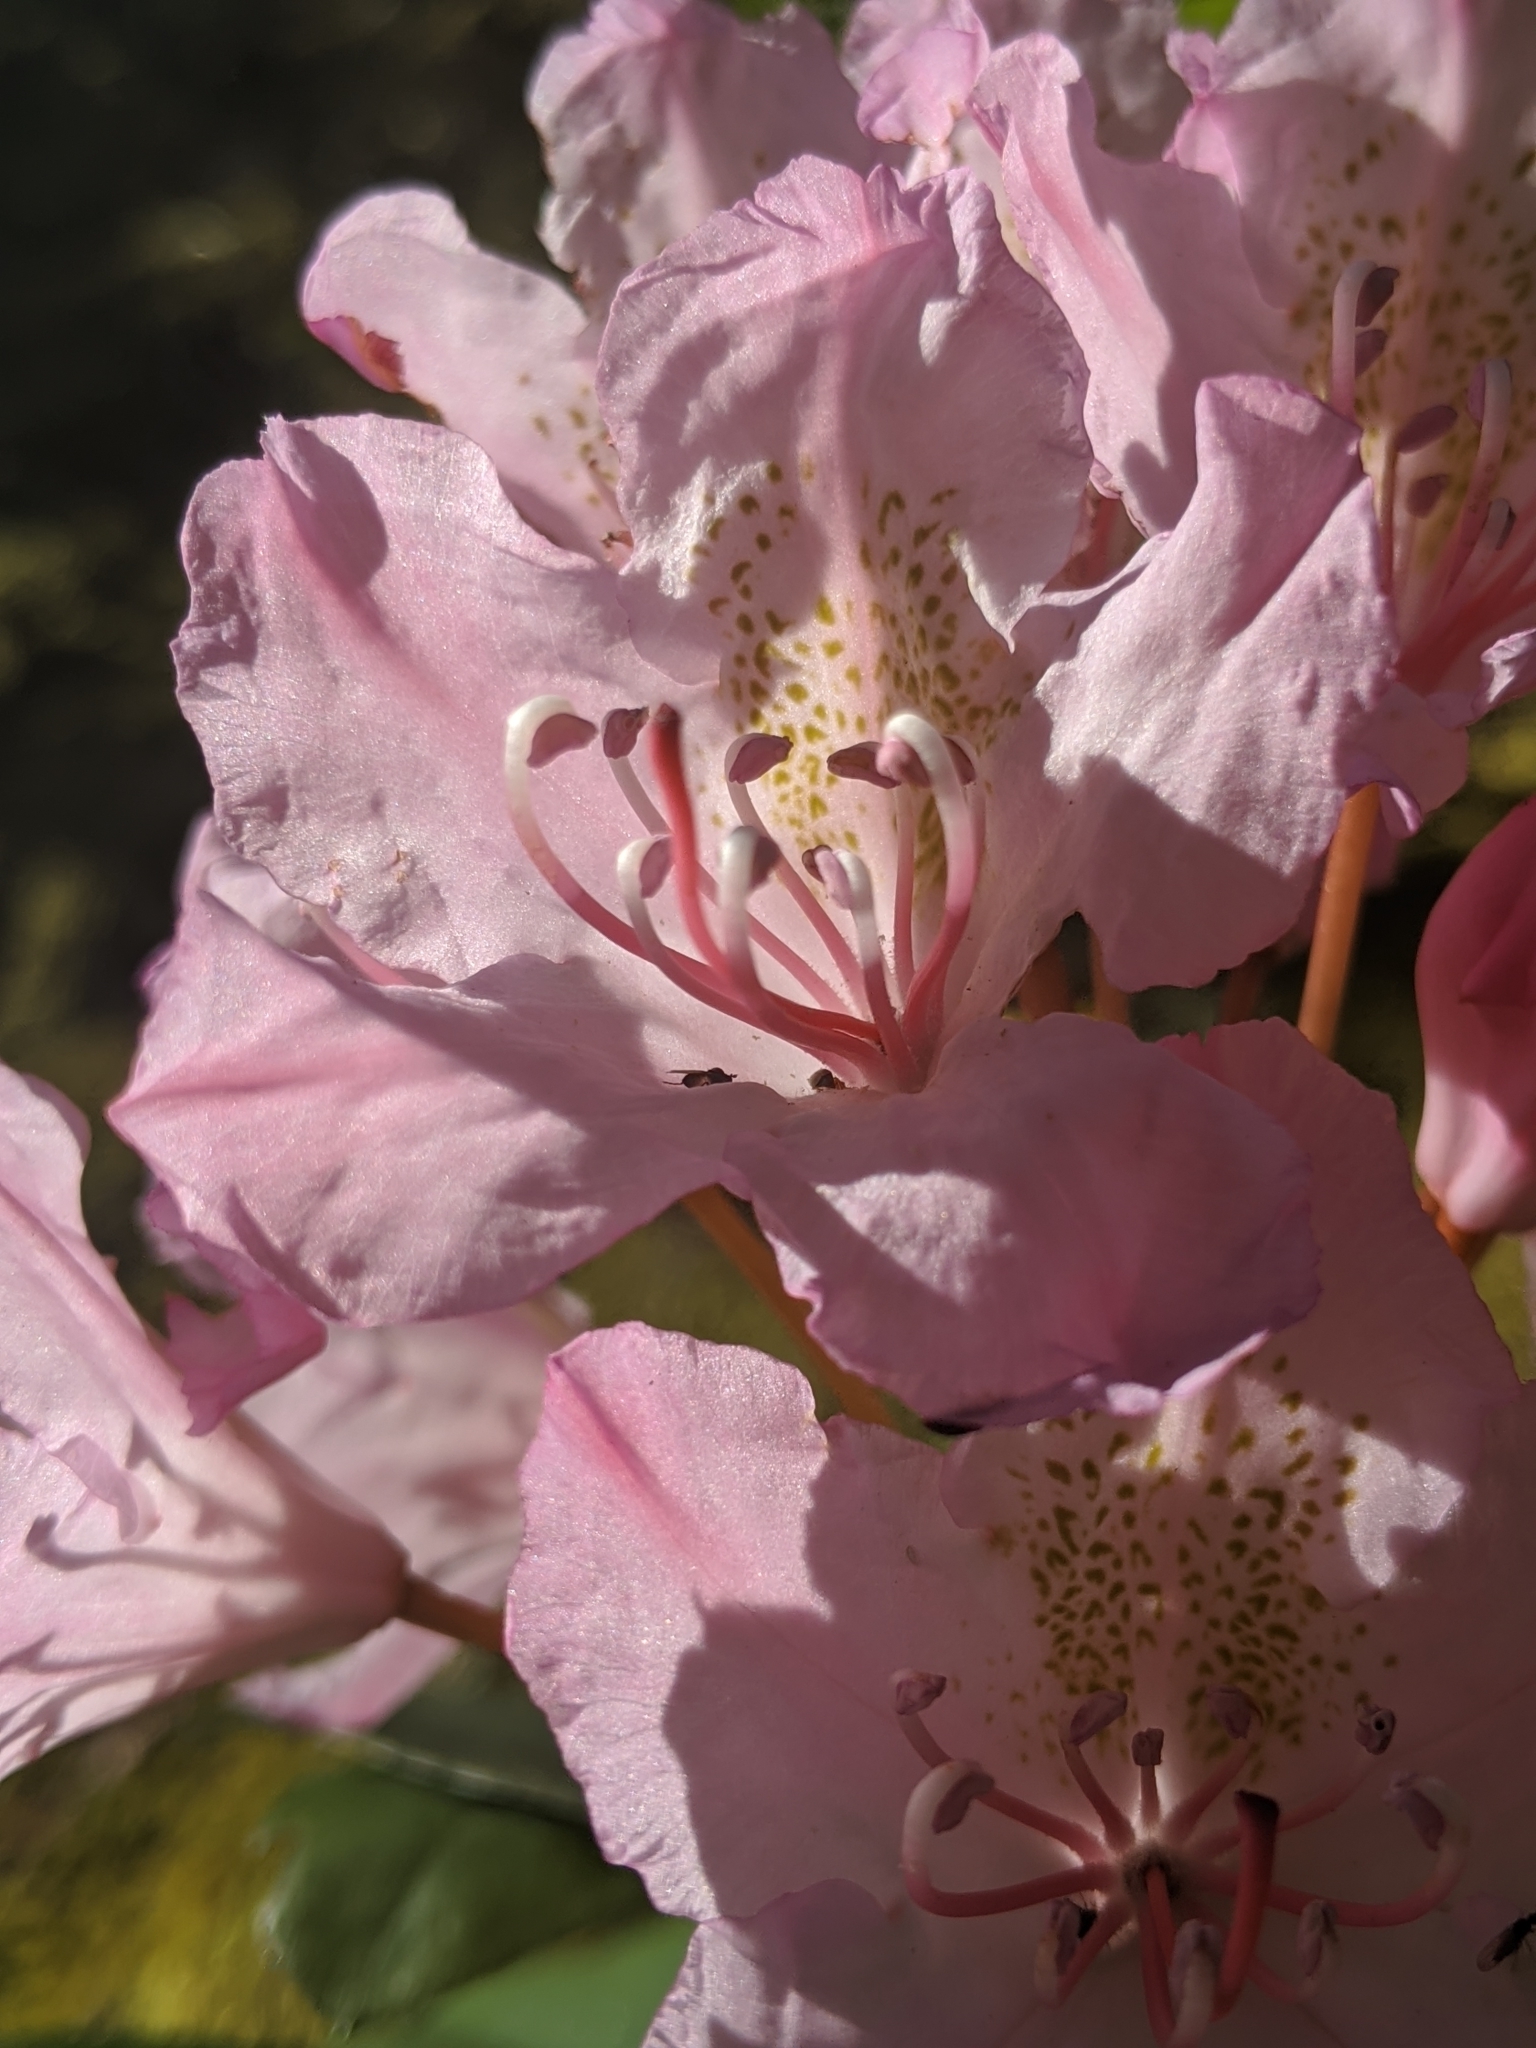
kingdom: Plantae
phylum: Tracheophyta
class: Magnoliopsida
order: Ericales
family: Ericaceae
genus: Rhododendron
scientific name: Rhododendron macrophyllum
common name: California rose bay
